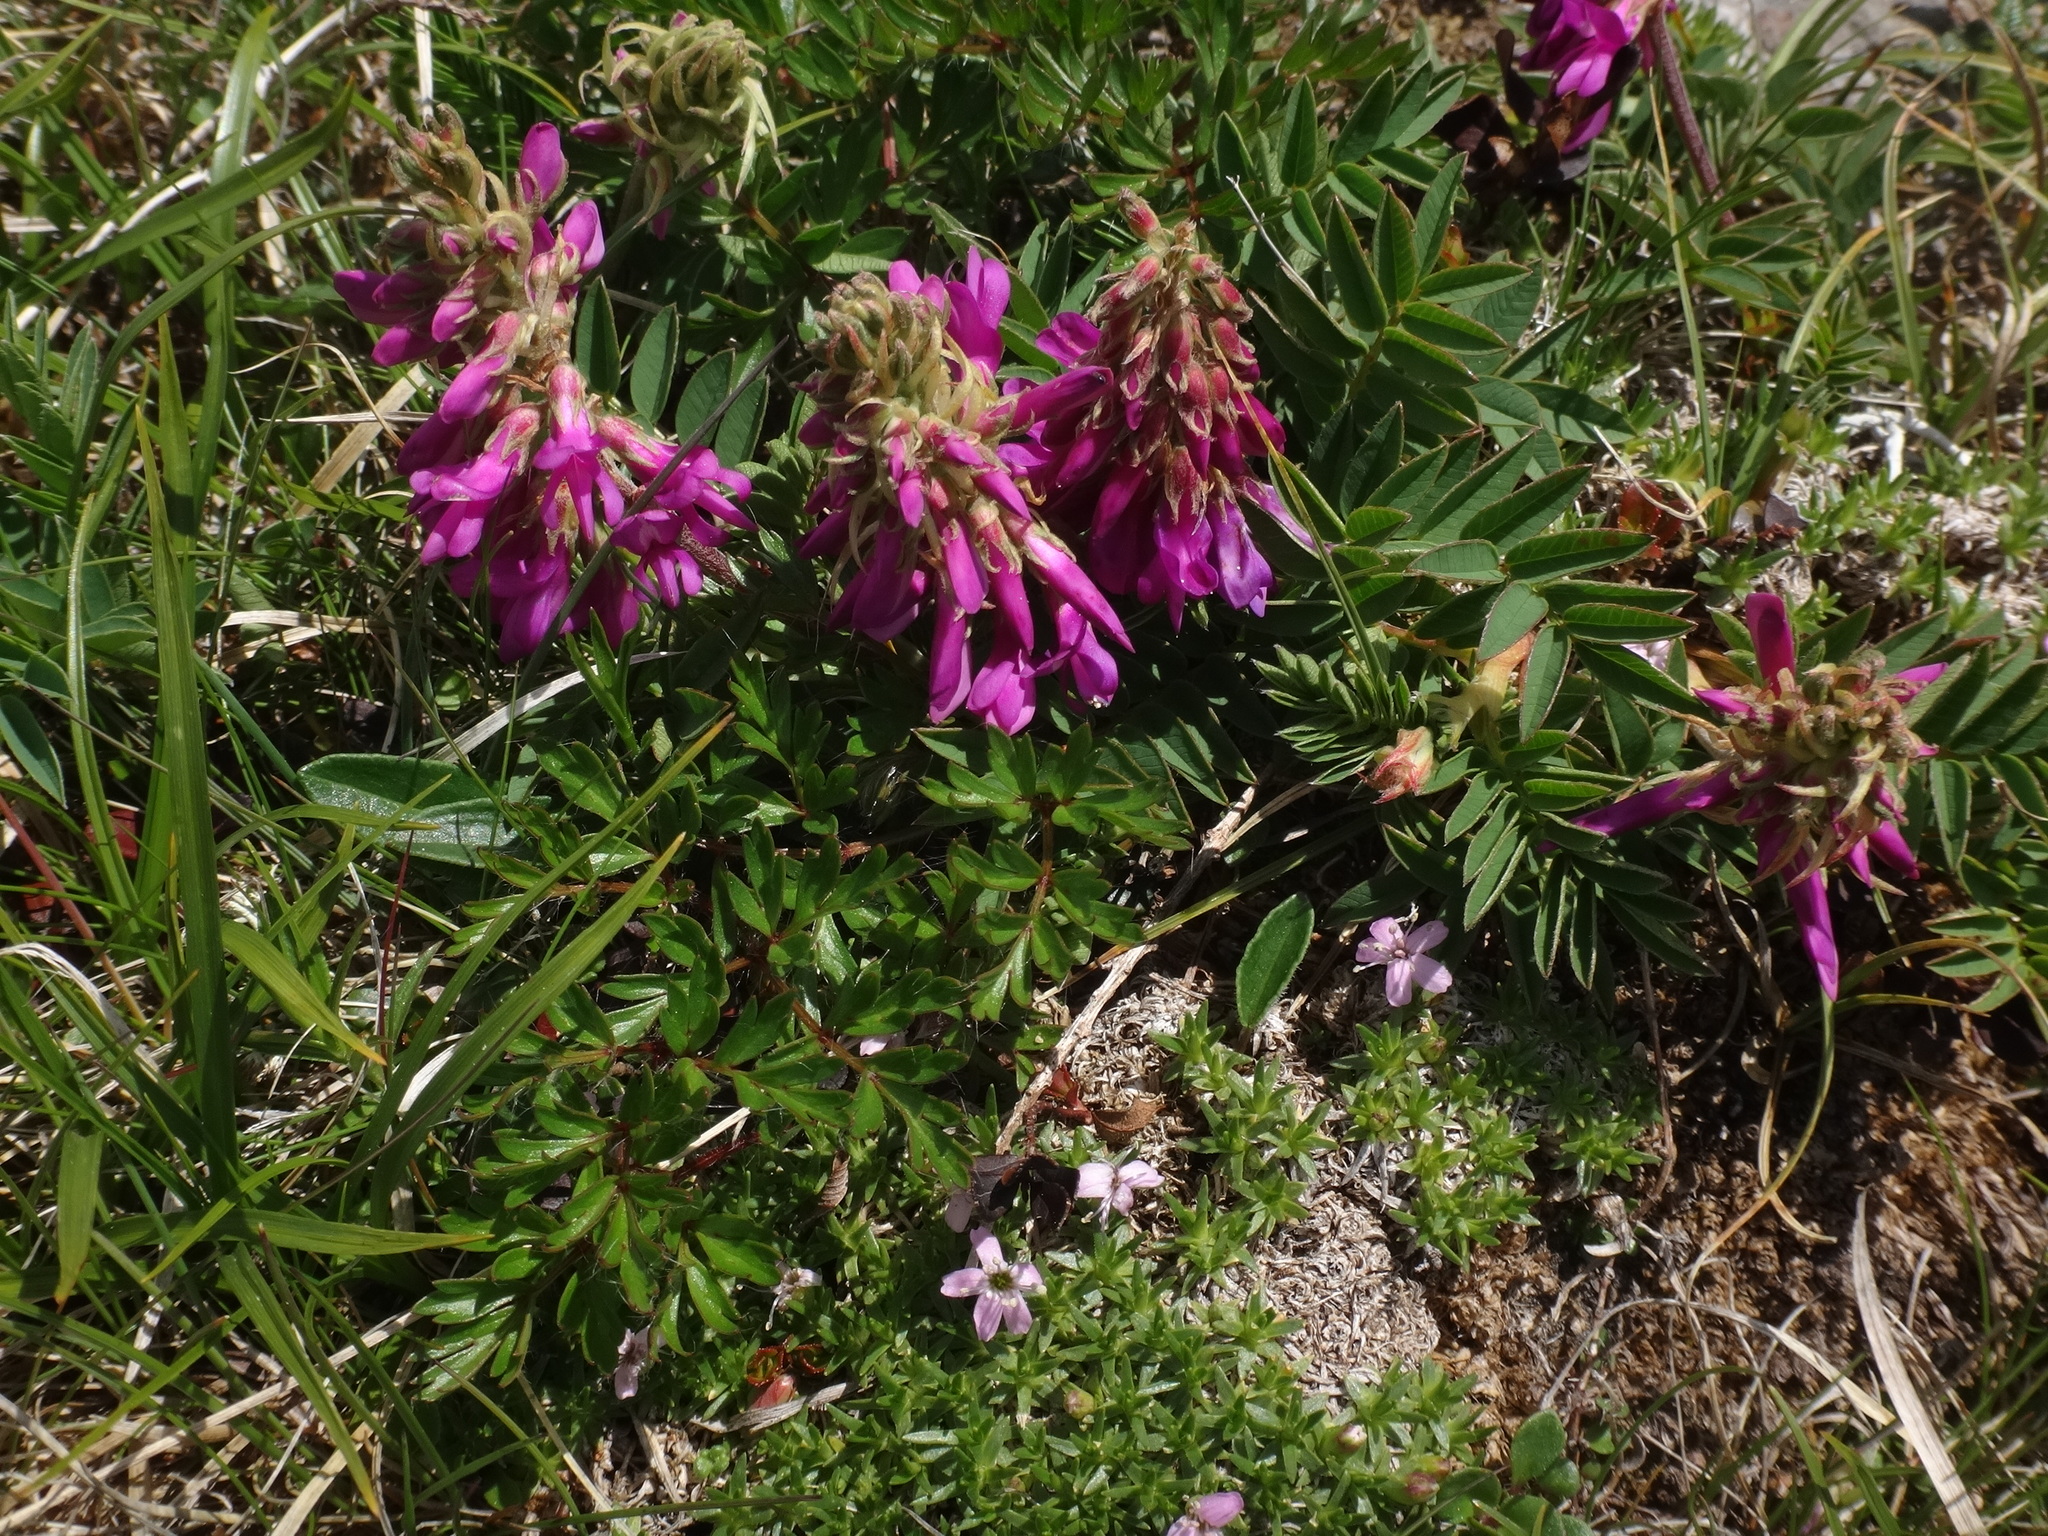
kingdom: Plantae
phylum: Tracheophyta
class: Magnoliopsida
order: Fabales
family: Fabaceae
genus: Hedysarum
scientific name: Hedysarum hedysaroides
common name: Alpine french-honeysuckle
